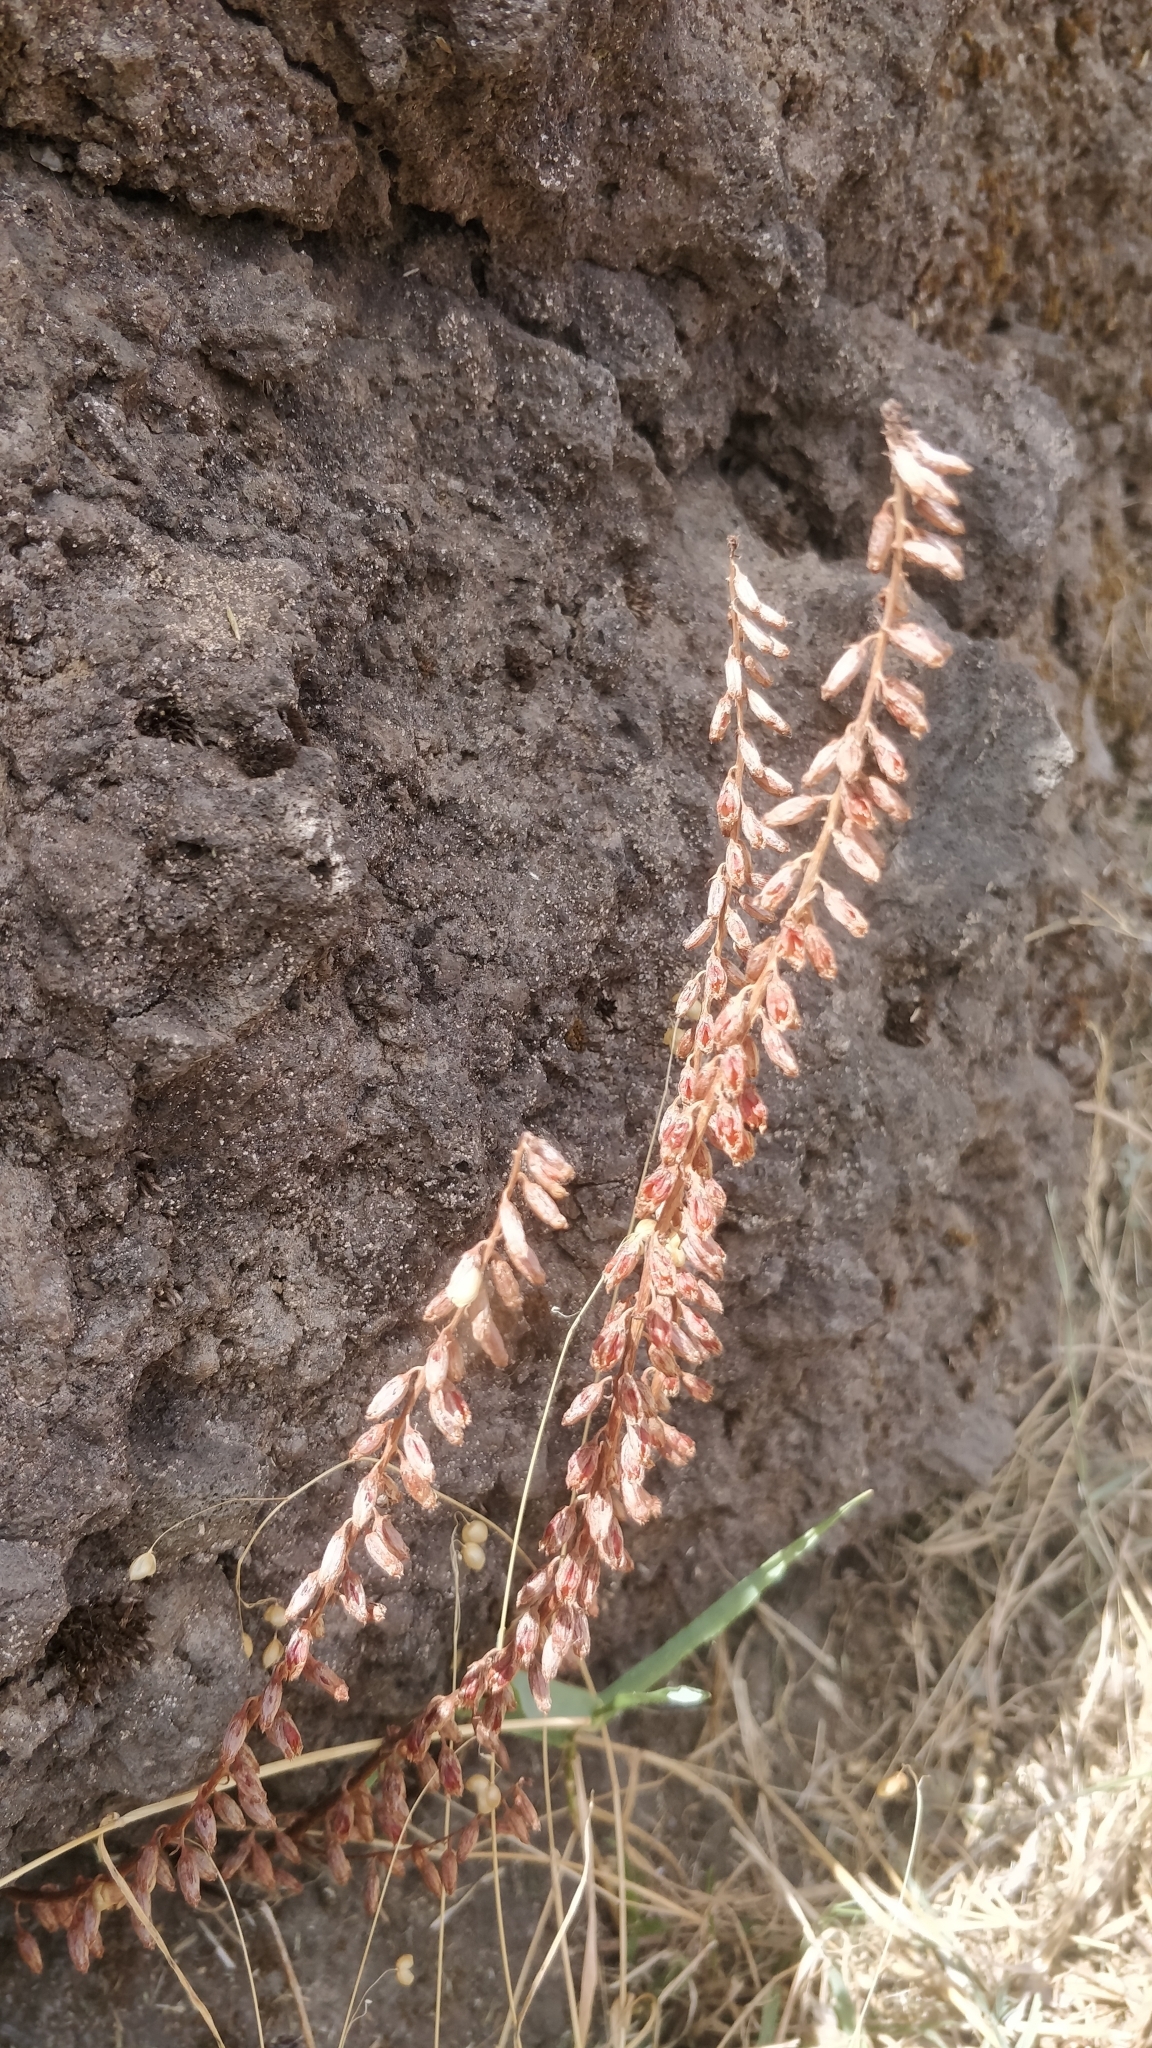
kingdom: Plantae
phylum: Tracheophyta
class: Magnoliopsida
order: Saxifragales
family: Crassulaceae
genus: Umbilicus
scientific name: Umbilicus rupestris
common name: Navelwort
